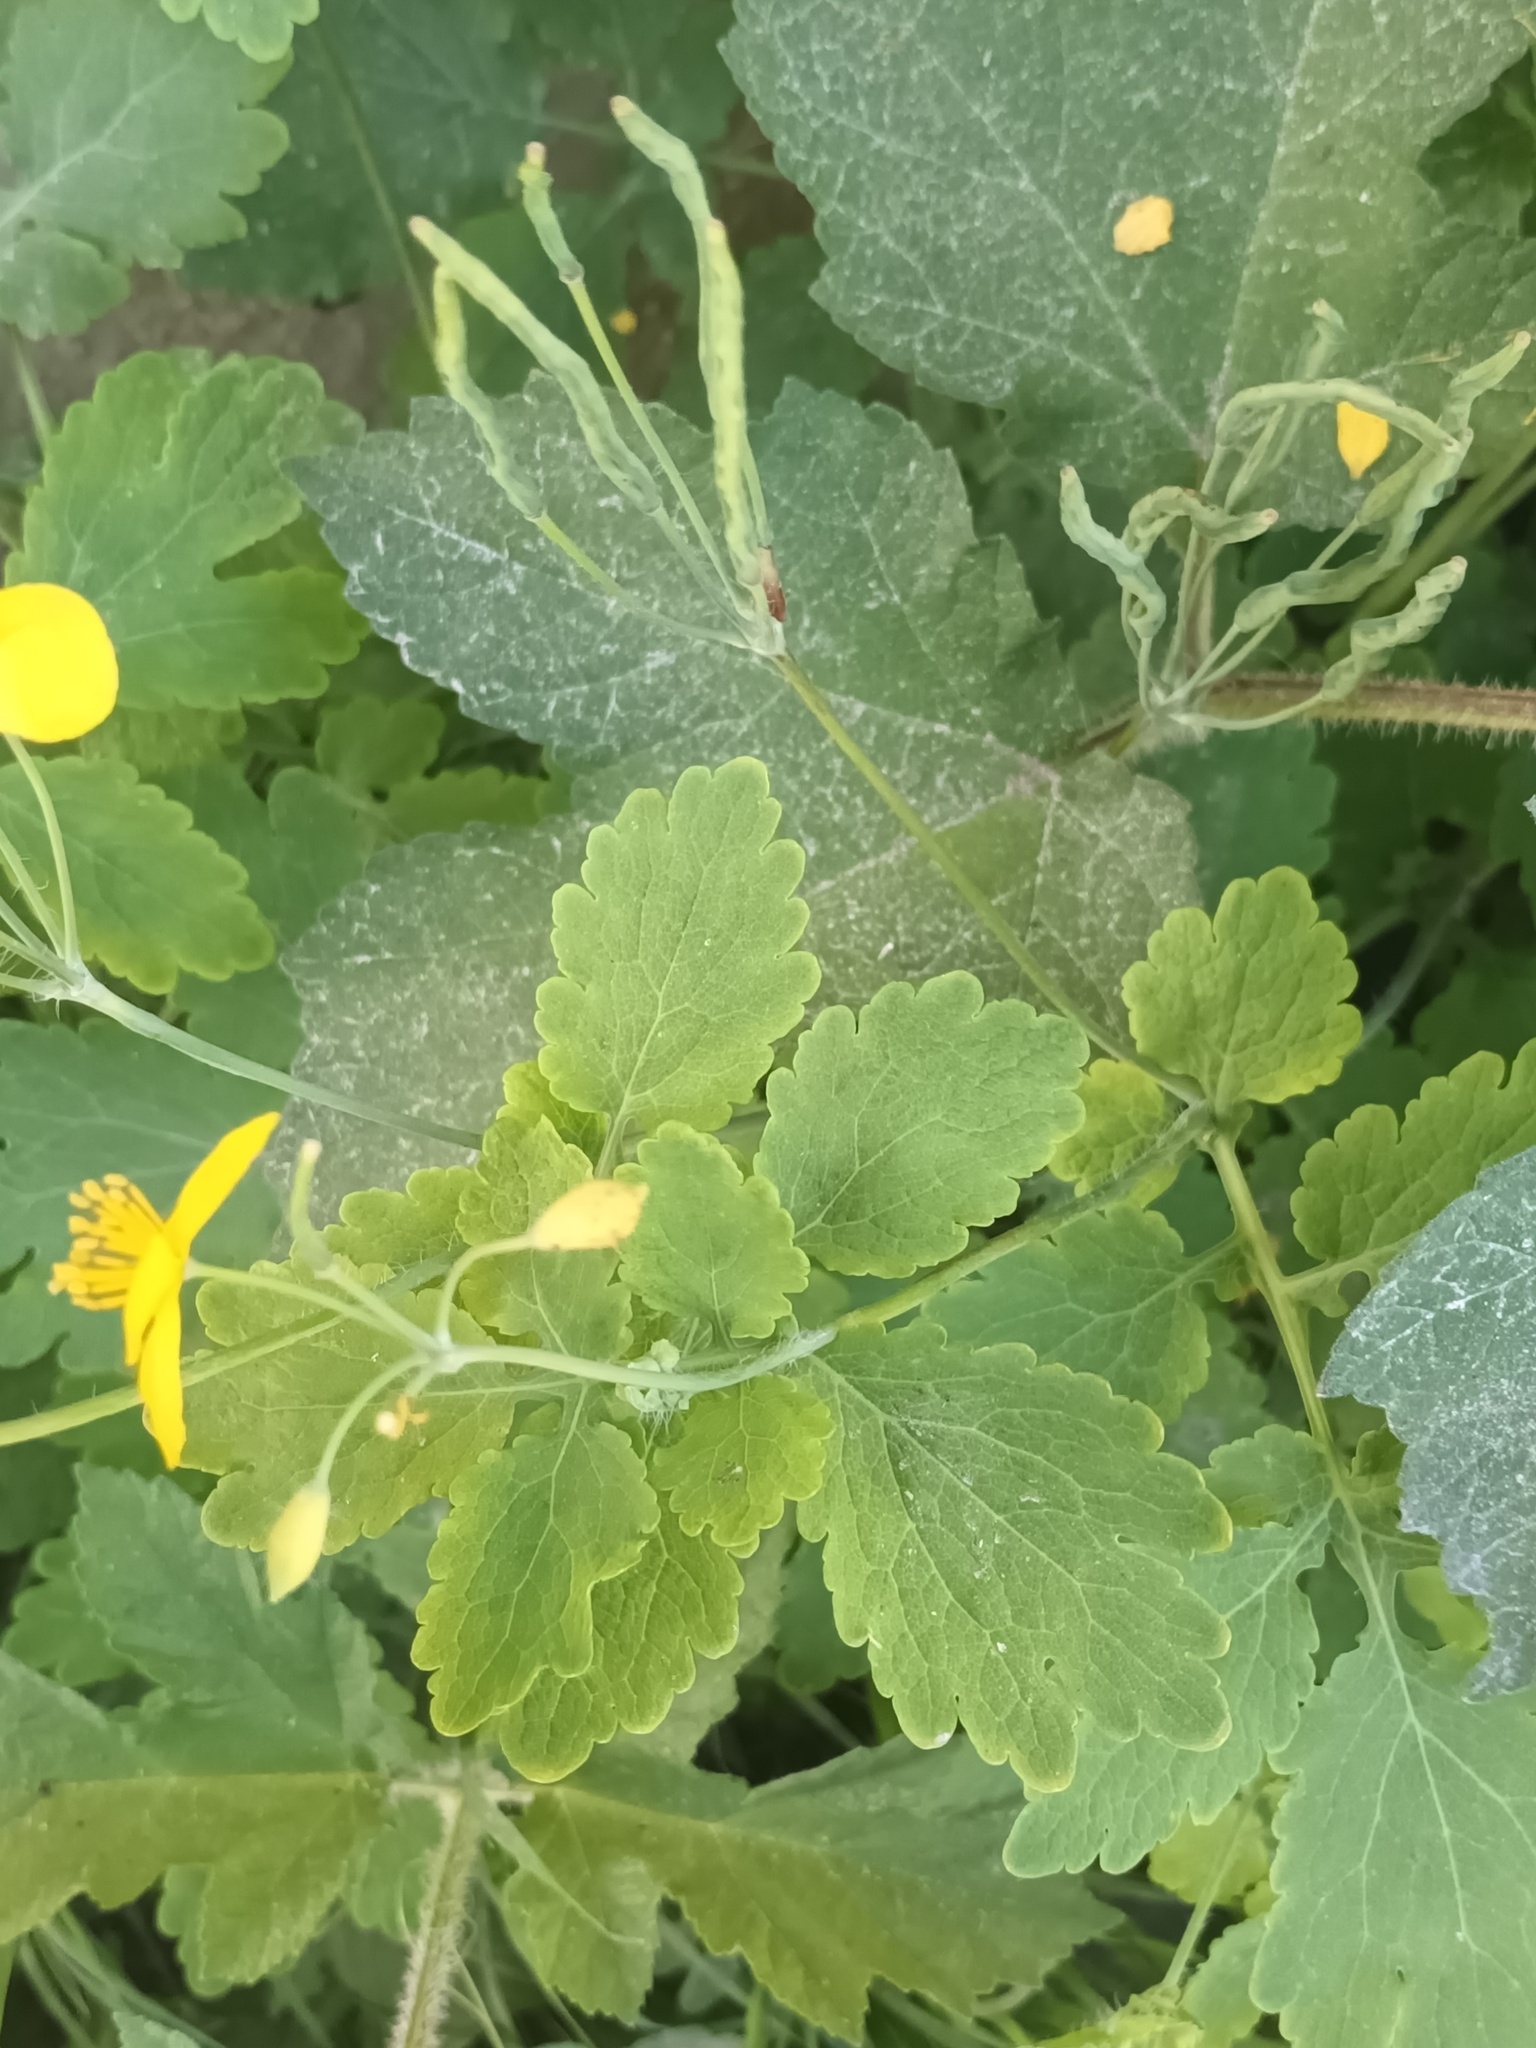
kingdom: Plantae
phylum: Tracheophyta
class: Magnoliopsida
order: Ranunculales
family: Papaveraceae
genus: Chelidonium
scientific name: Chelidonium majus
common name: Greater celandine
